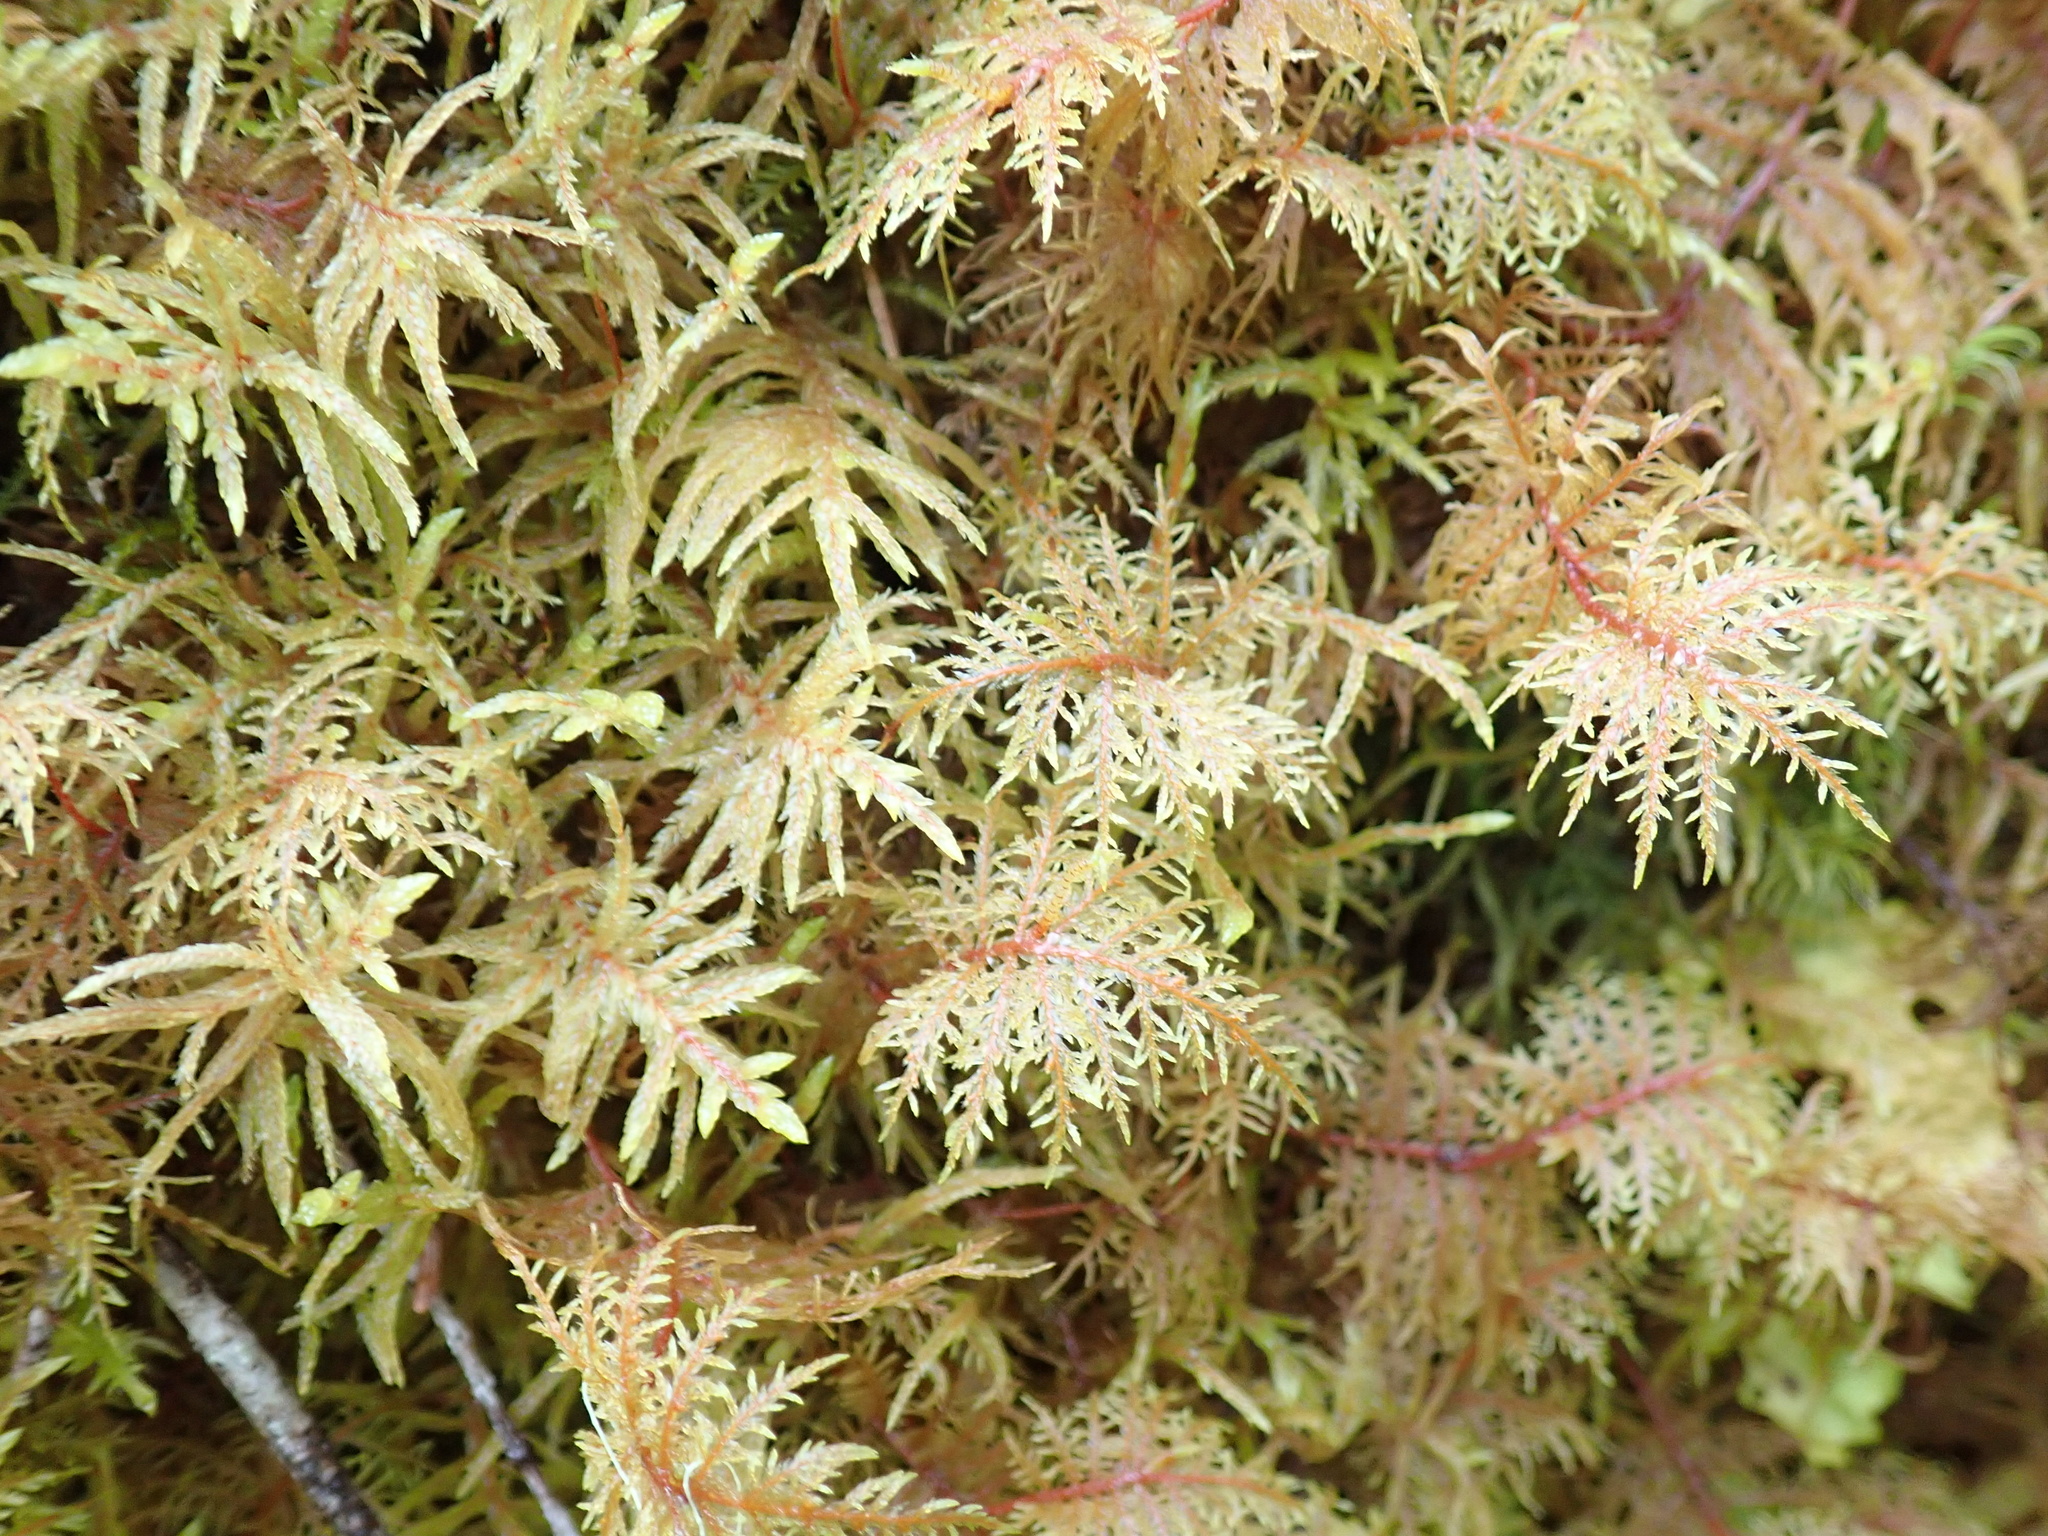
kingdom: Plantae
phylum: Bryophyta
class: Bryopsida
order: Hypnales
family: Hylocomiaceae
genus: Hylocomium
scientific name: Hylocomium splendens
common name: Stairstep moss
